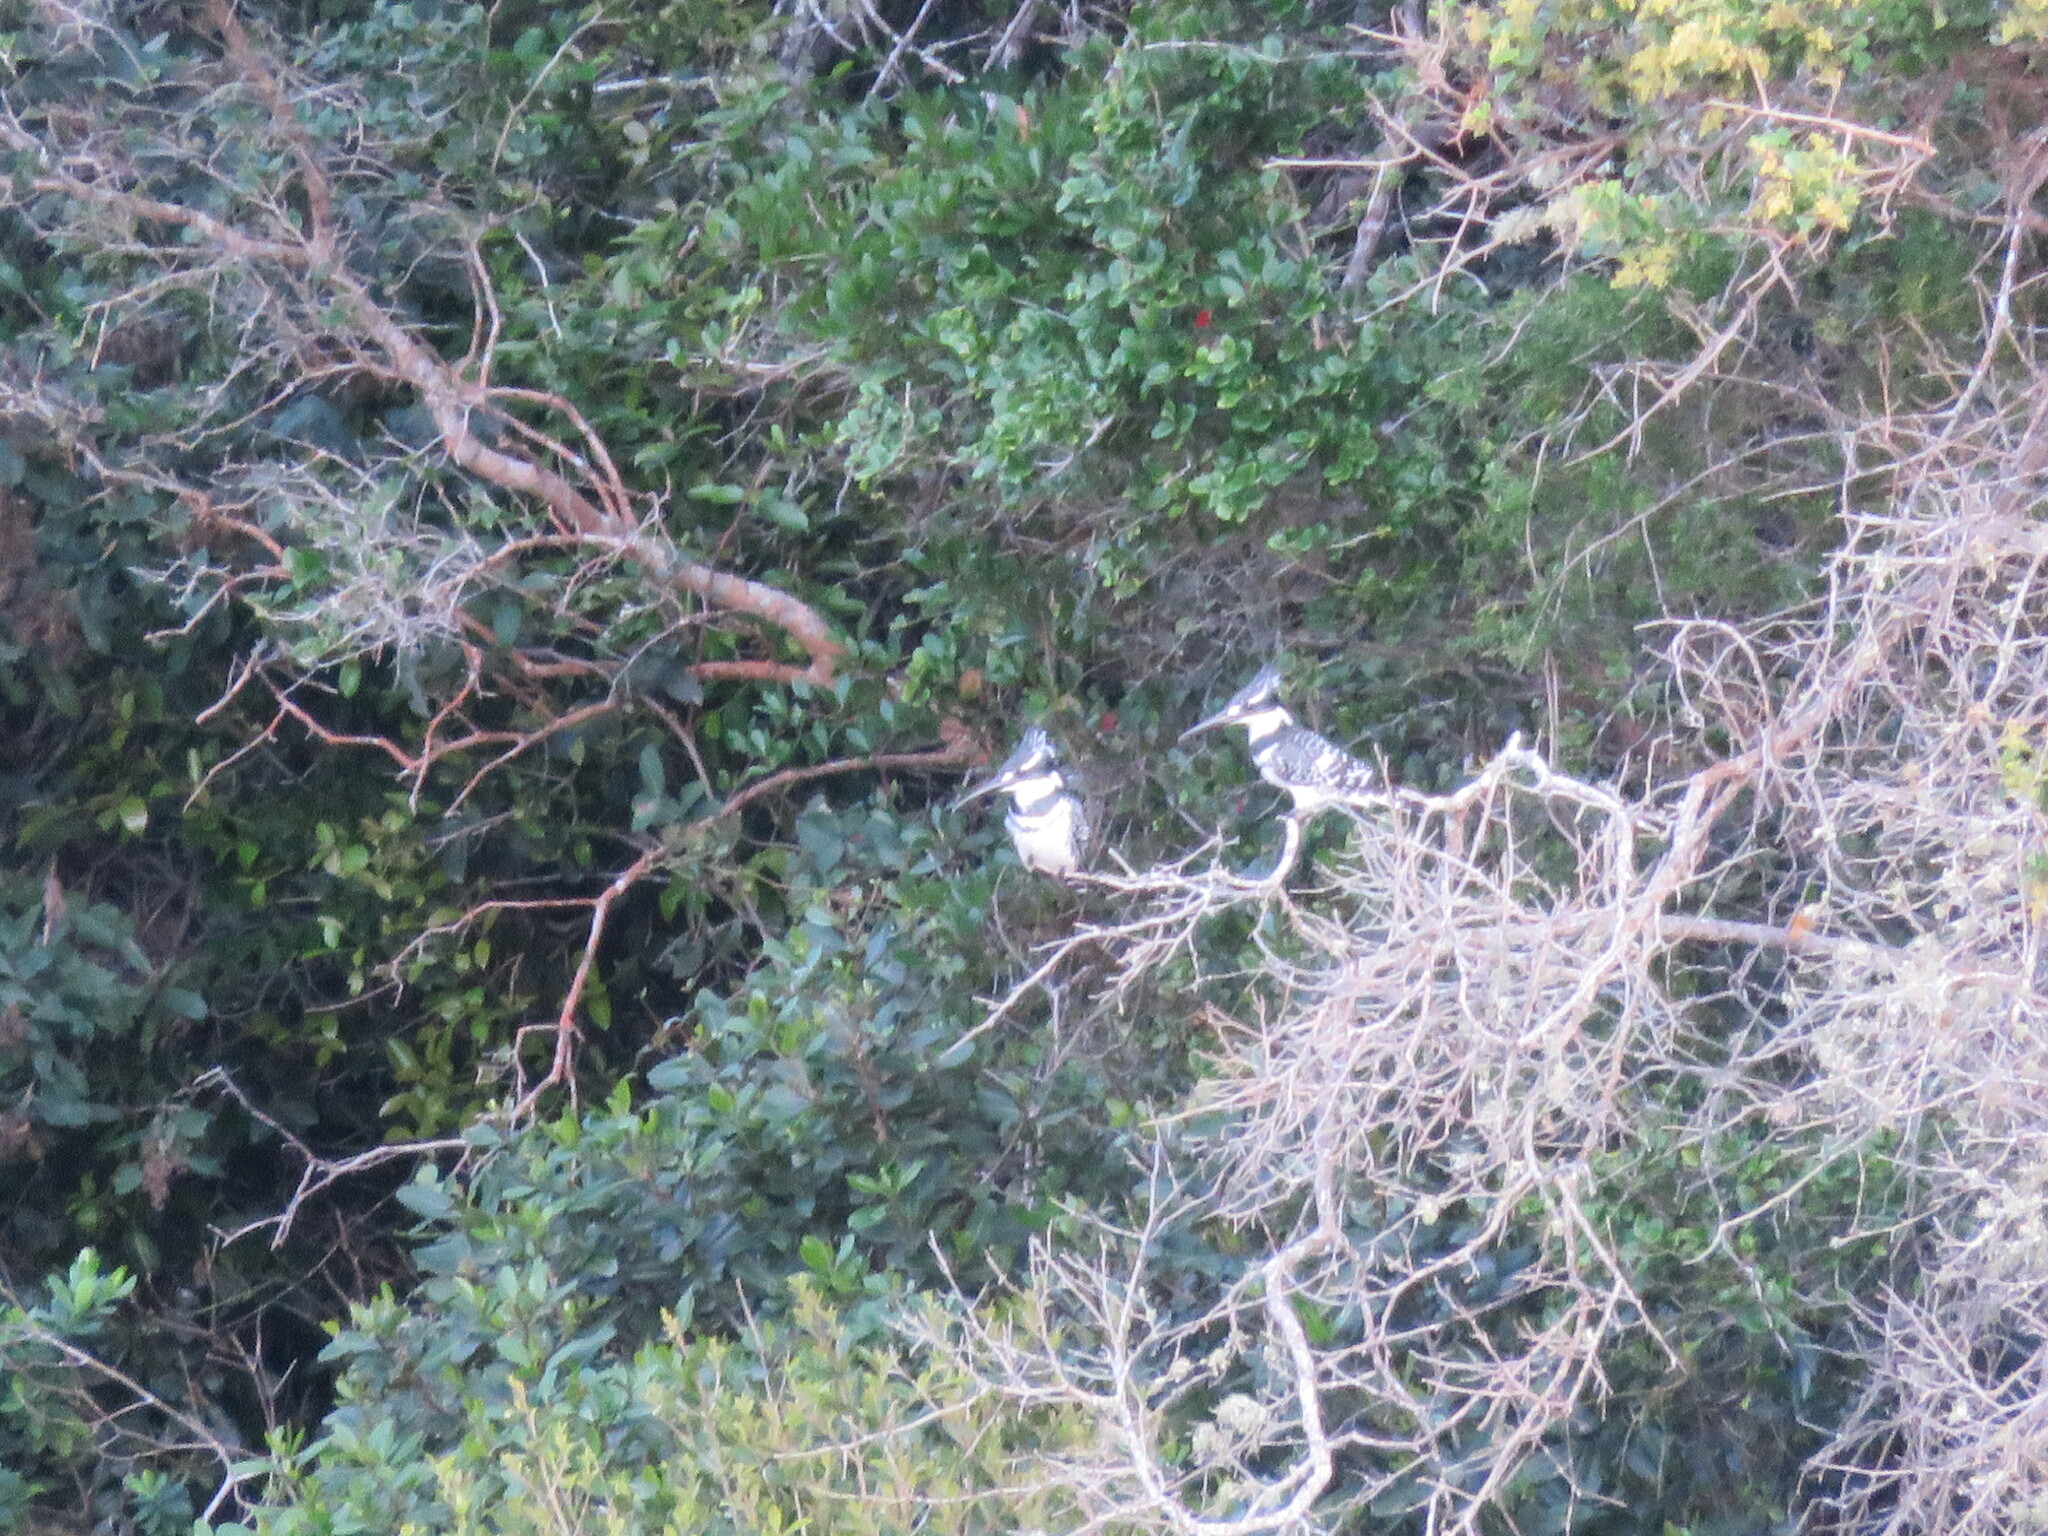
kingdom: Animalia
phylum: Chordata
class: Aves
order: Coraciiformes
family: Alcedinidae
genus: Ceryle
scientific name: Ceryle rudis
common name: Pied kingfisher
